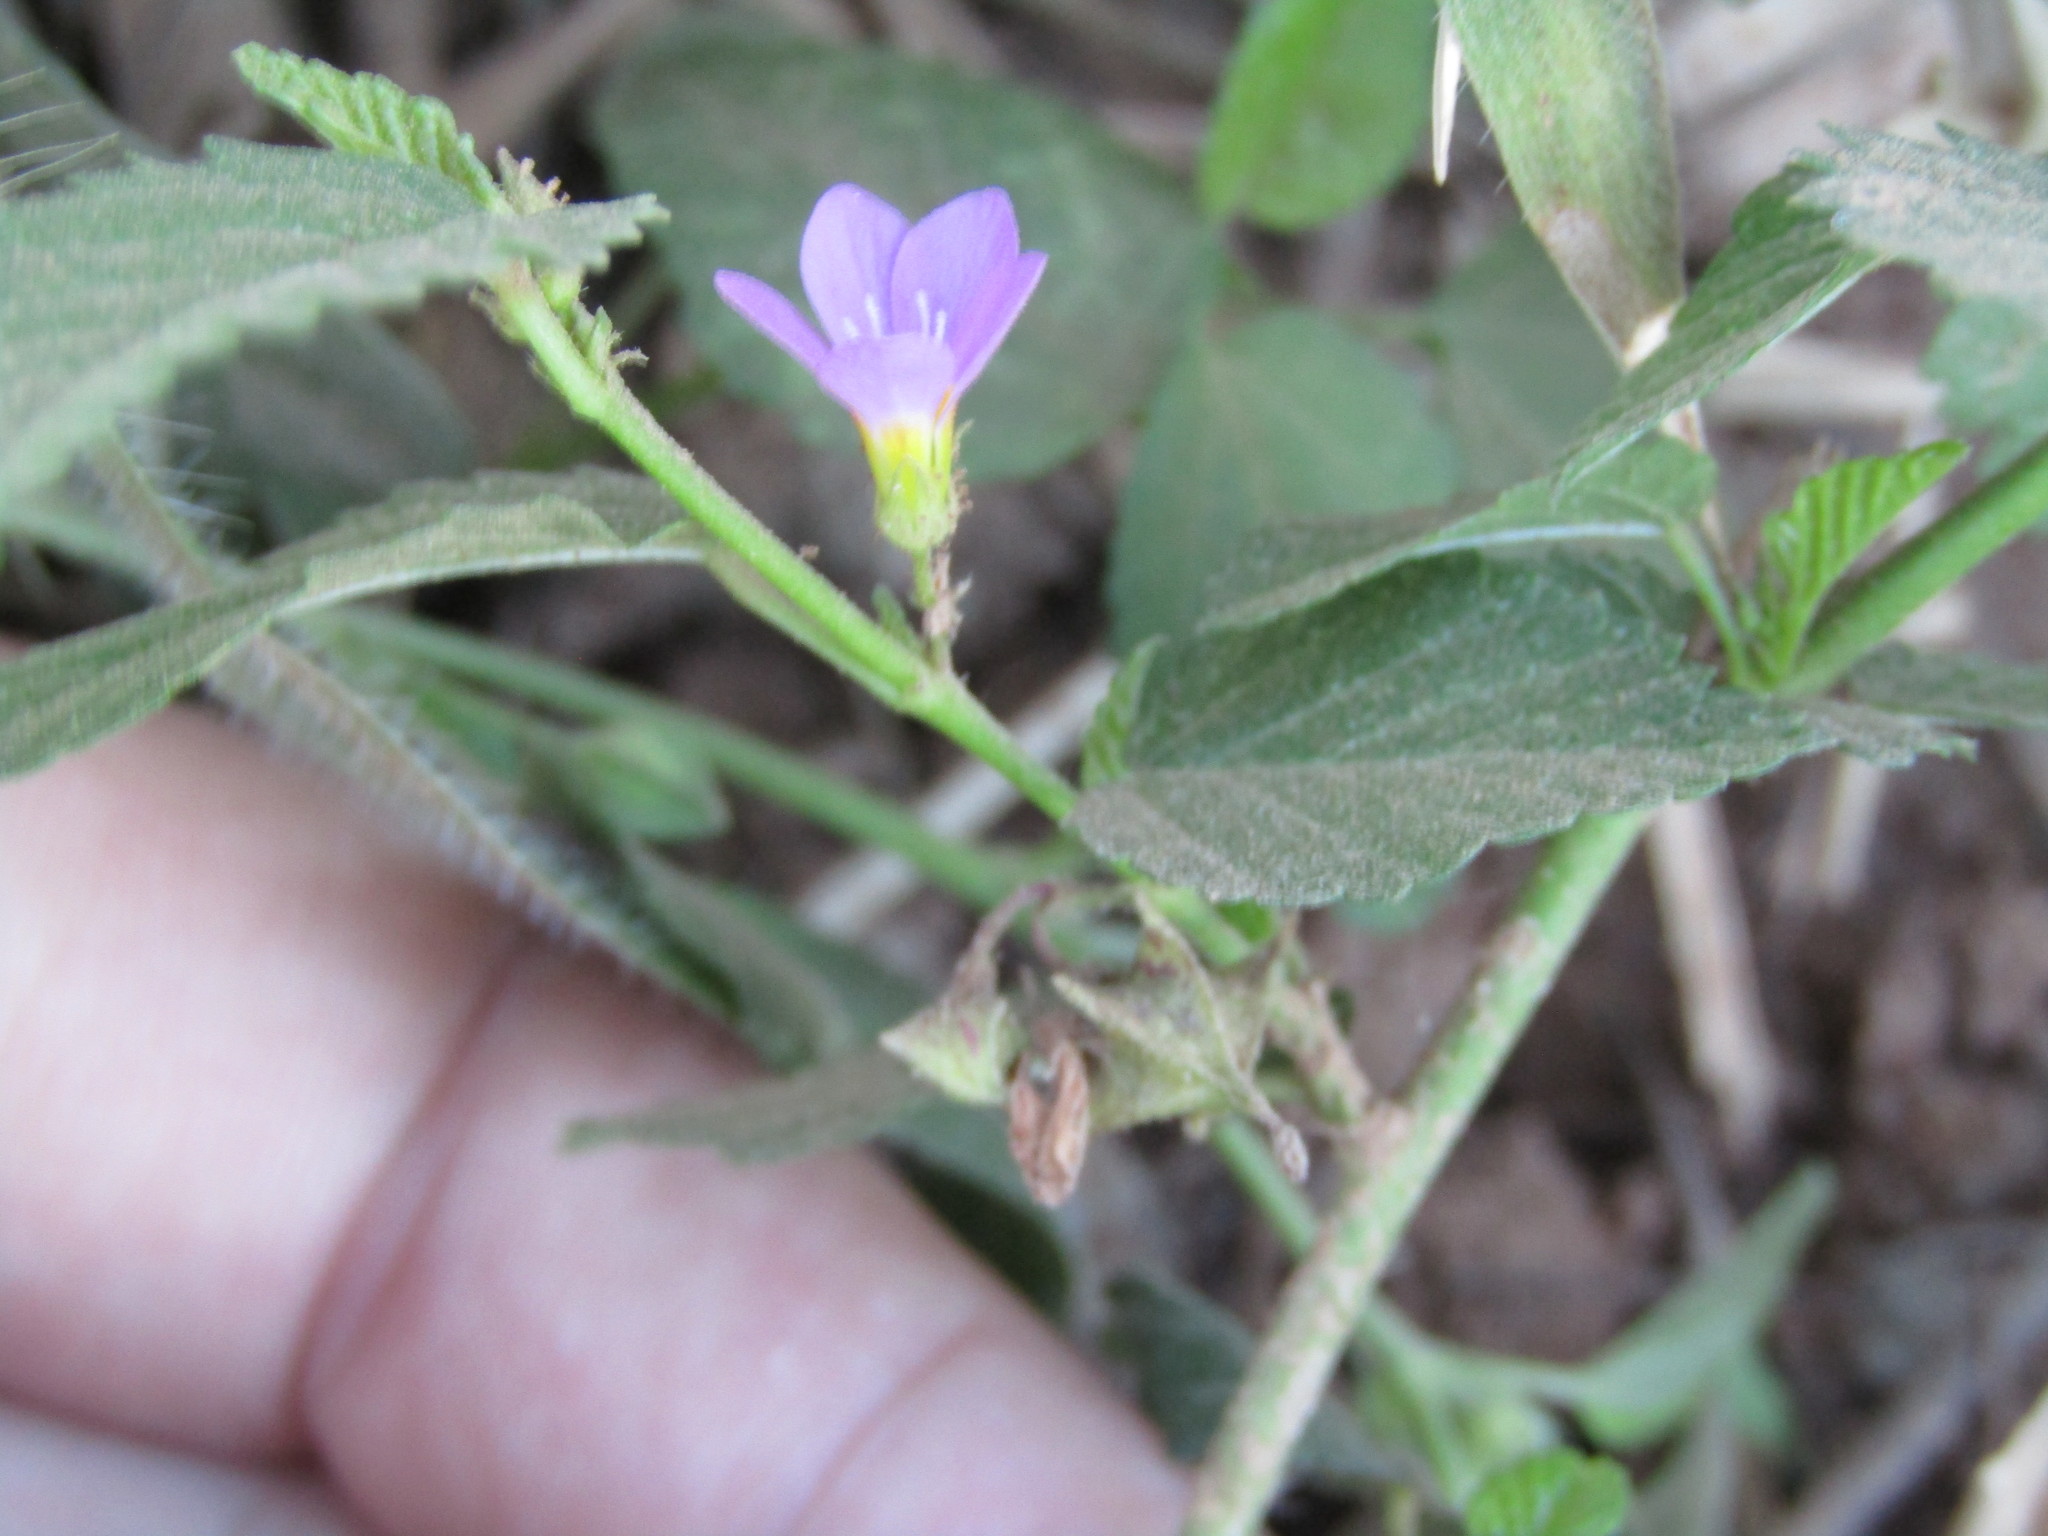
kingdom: Plantae
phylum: Tracheophyta
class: Magnoliopsida
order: Malvales
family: Malvaceae
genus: Melochia
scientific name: Melochia pyramidata
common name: Pyramidflower
